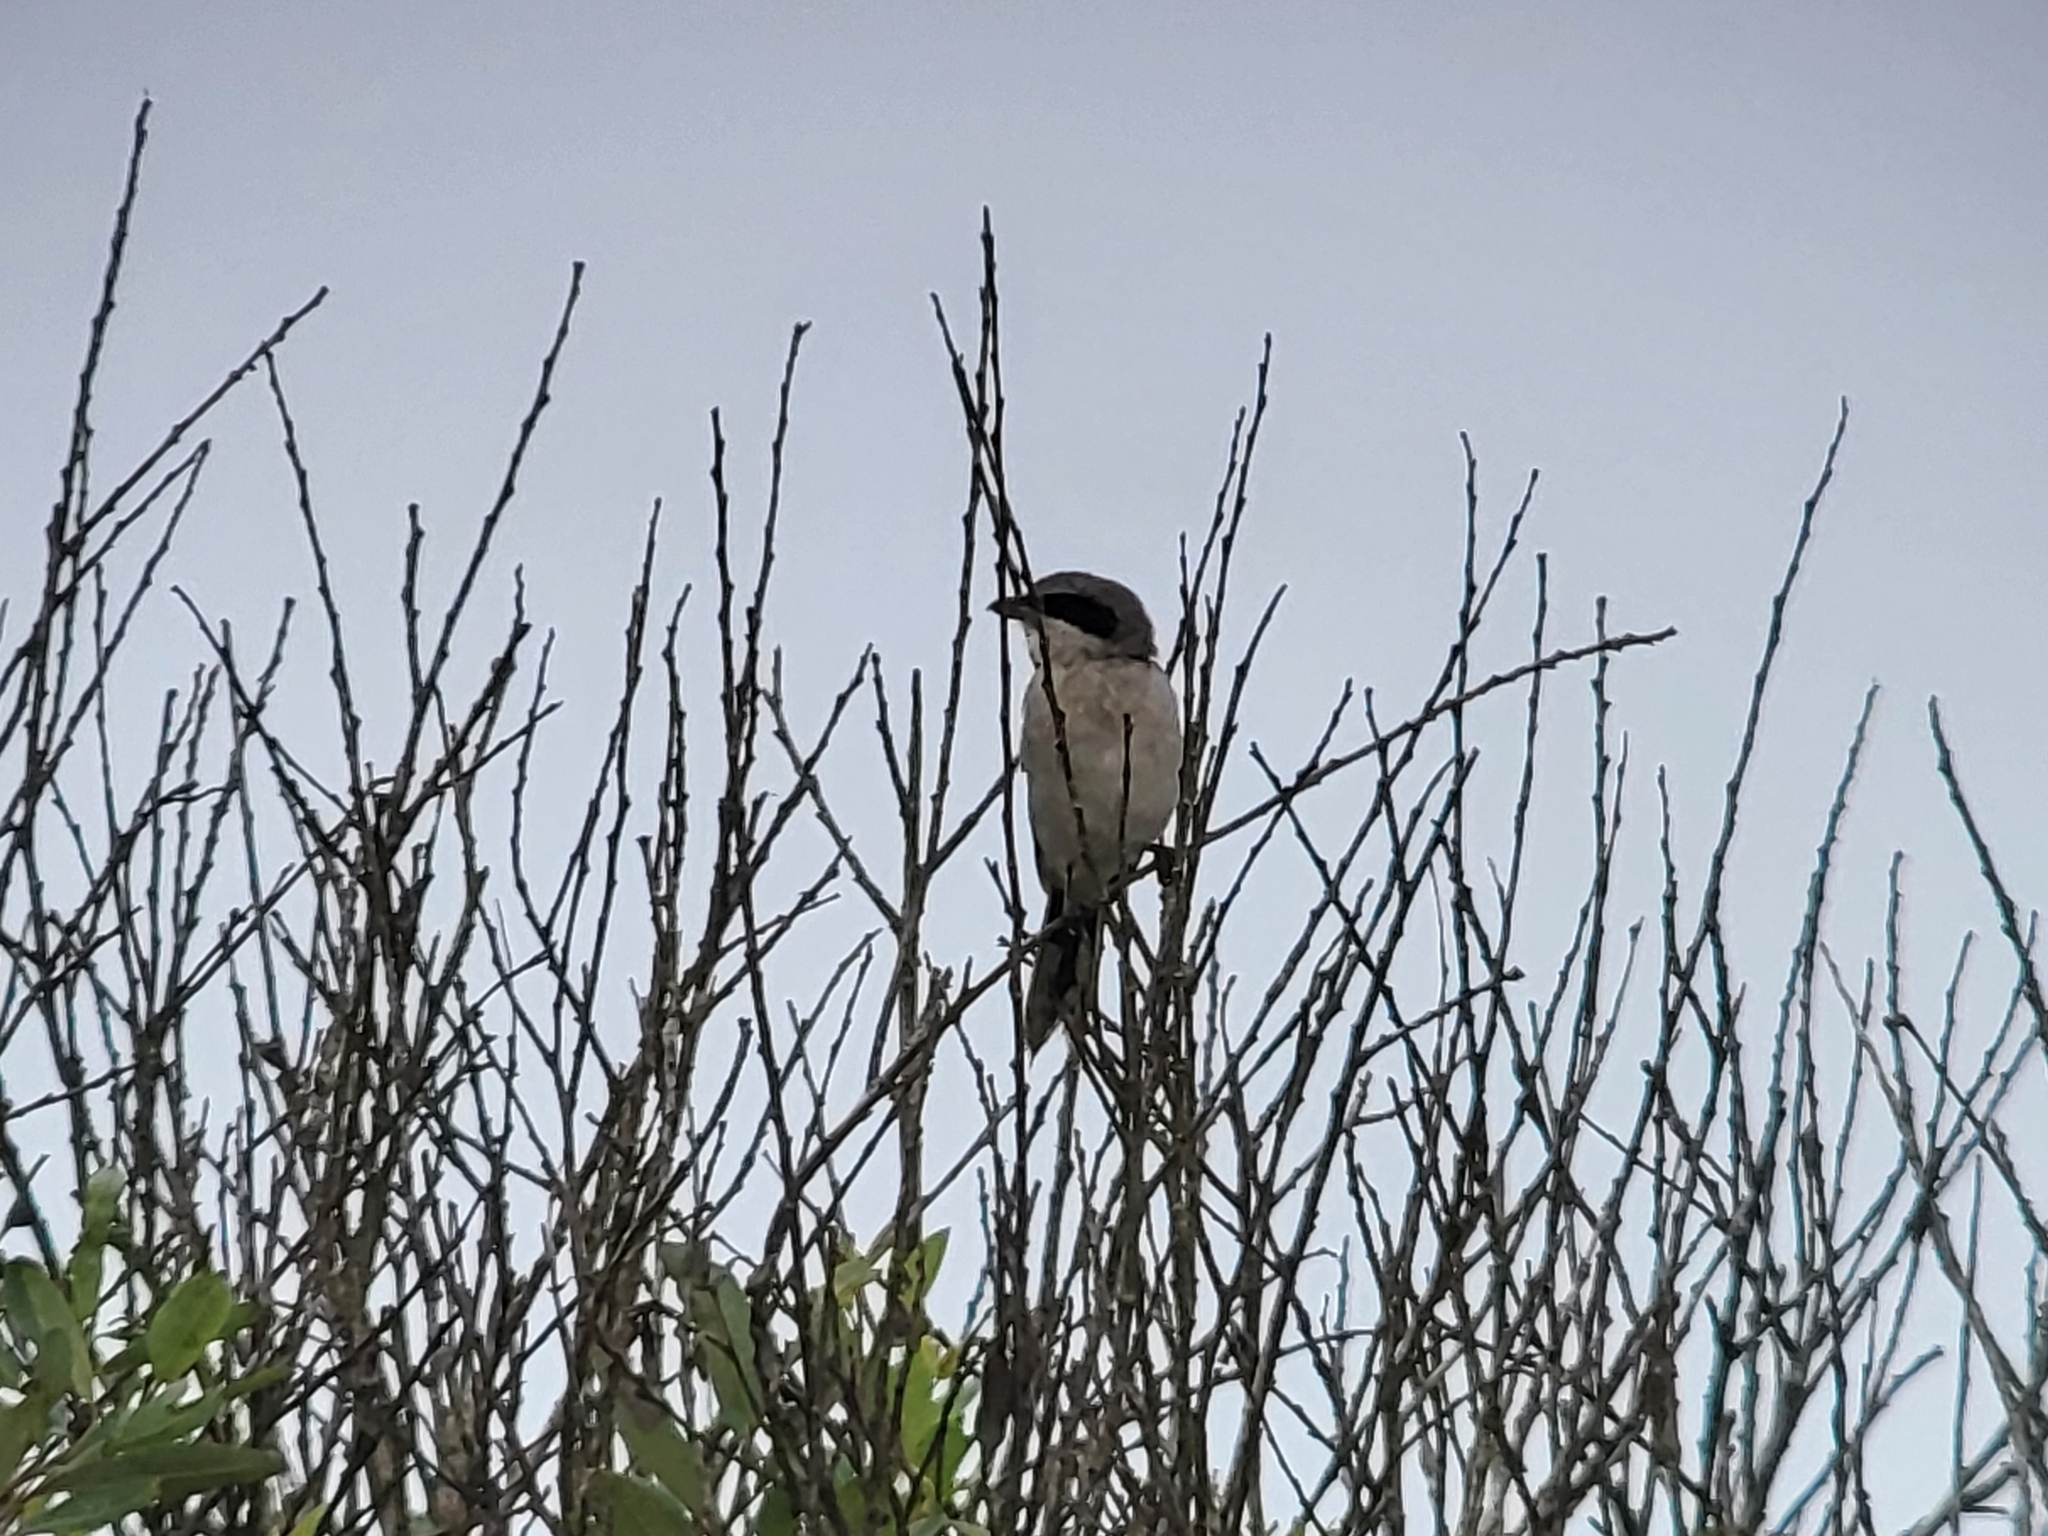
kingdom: Animalia
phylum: Chordata
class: Aves
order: Passeriformes
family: Laniidae
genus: Lanius
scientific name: Lanius ludovicianus
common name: Loggerhead shrike
